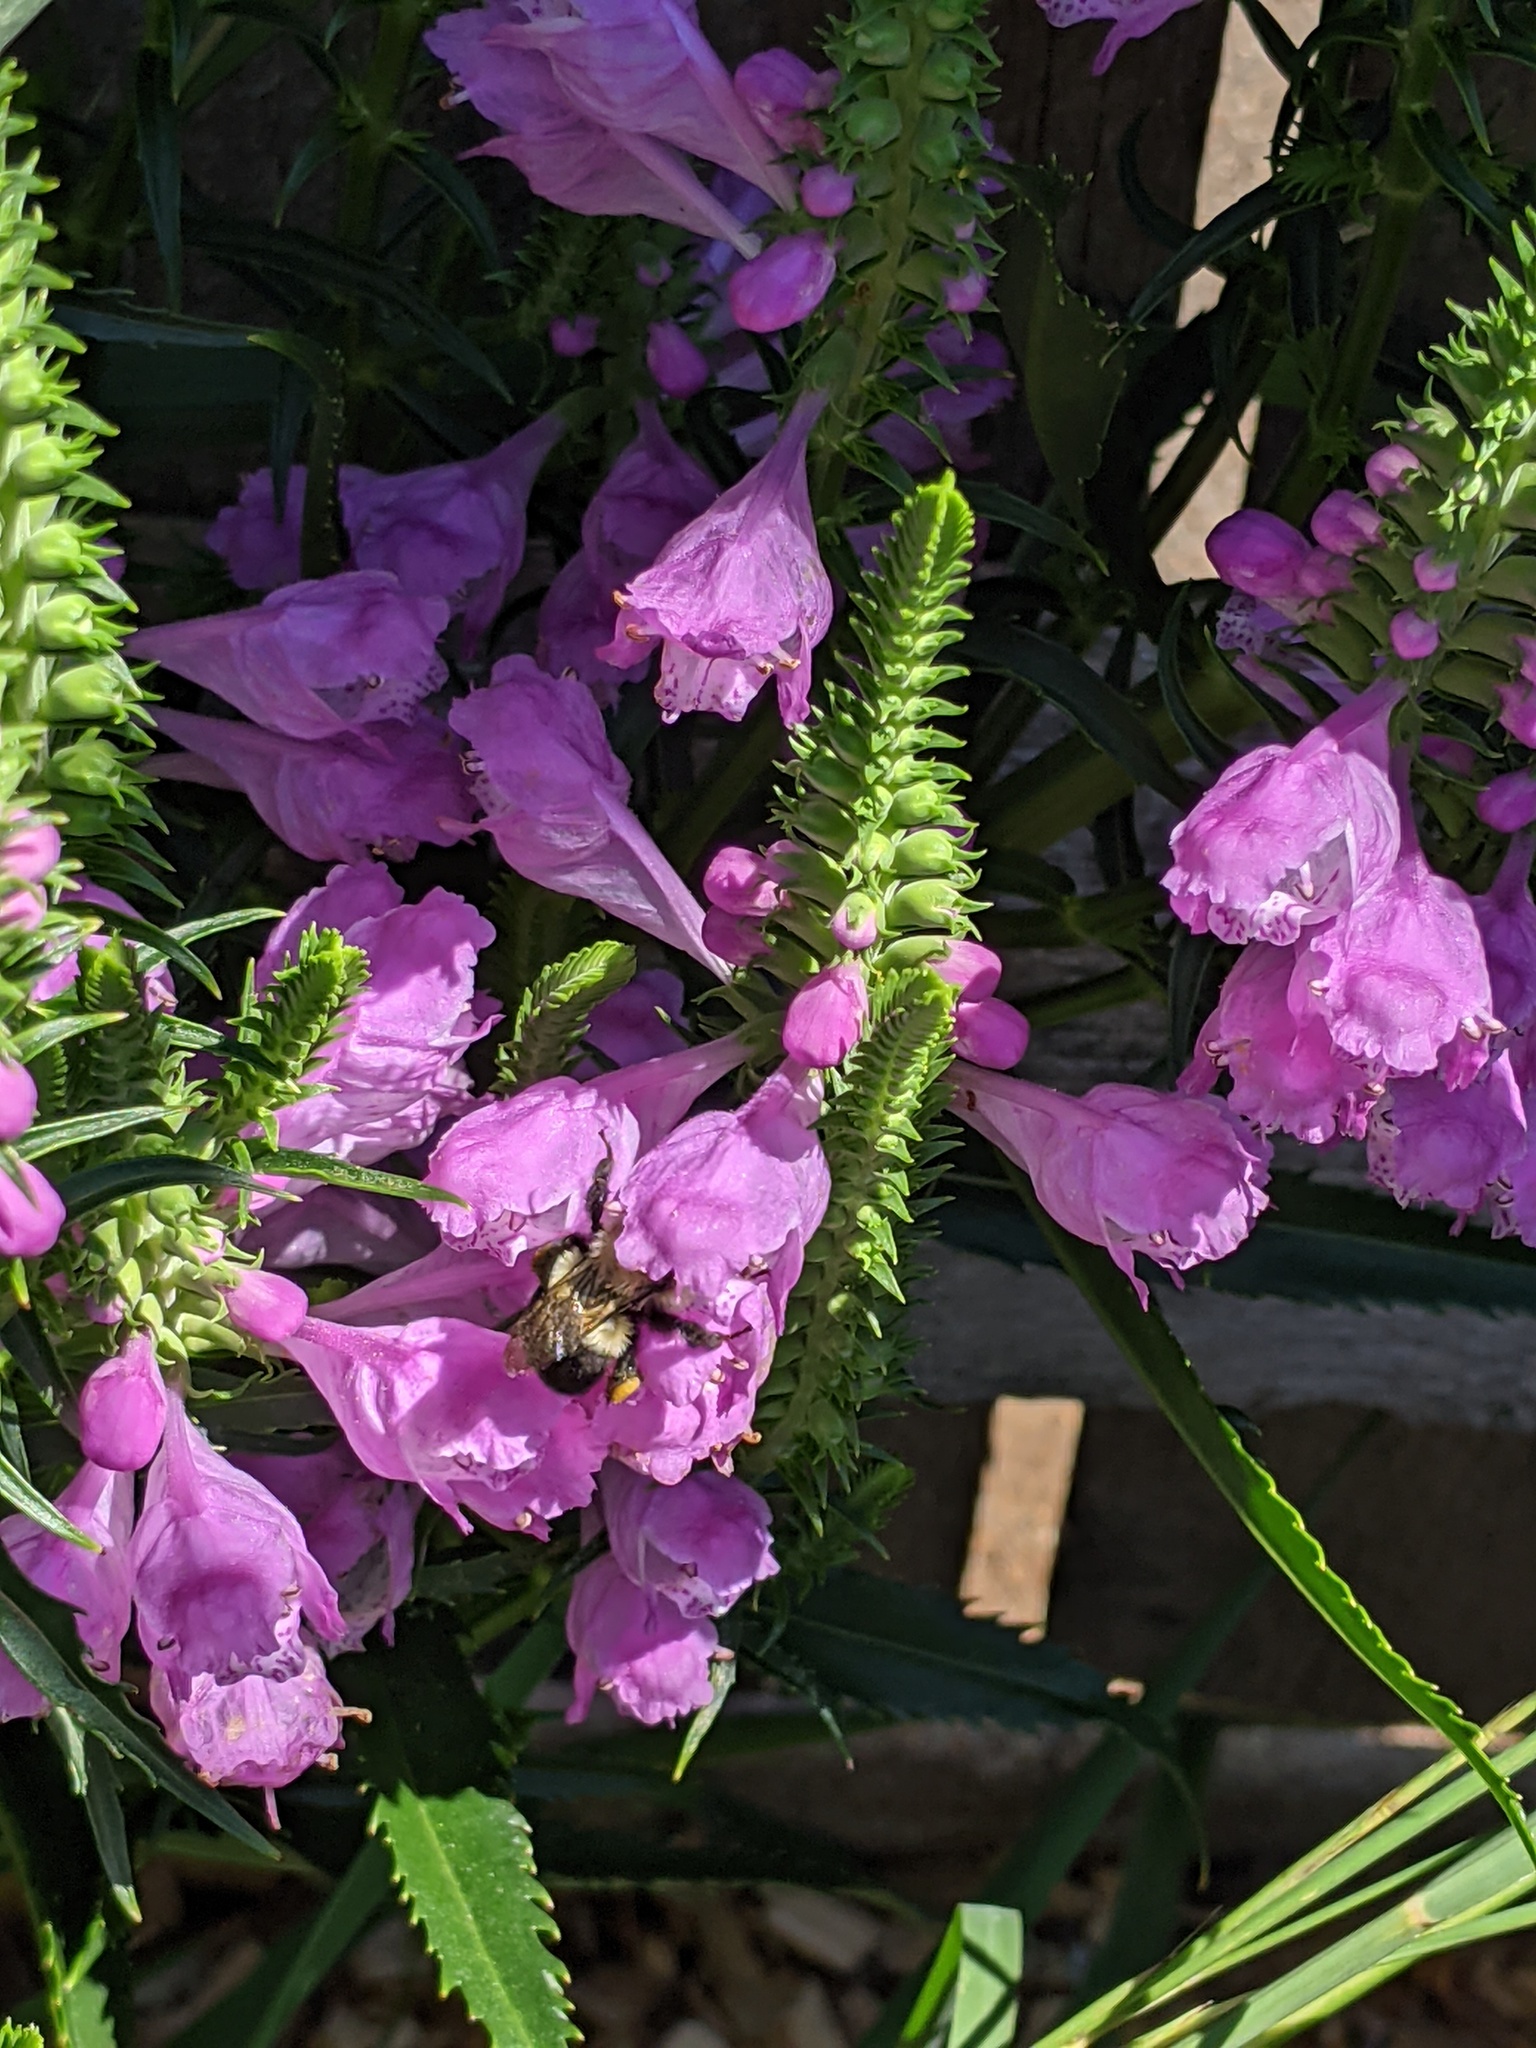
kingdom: Animalia
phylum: Arthropoda
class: Insecta
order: Hymenoptera
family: Apidae
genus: Bombus
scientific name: Bombus impatiens
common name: Common eastern bumble bee
